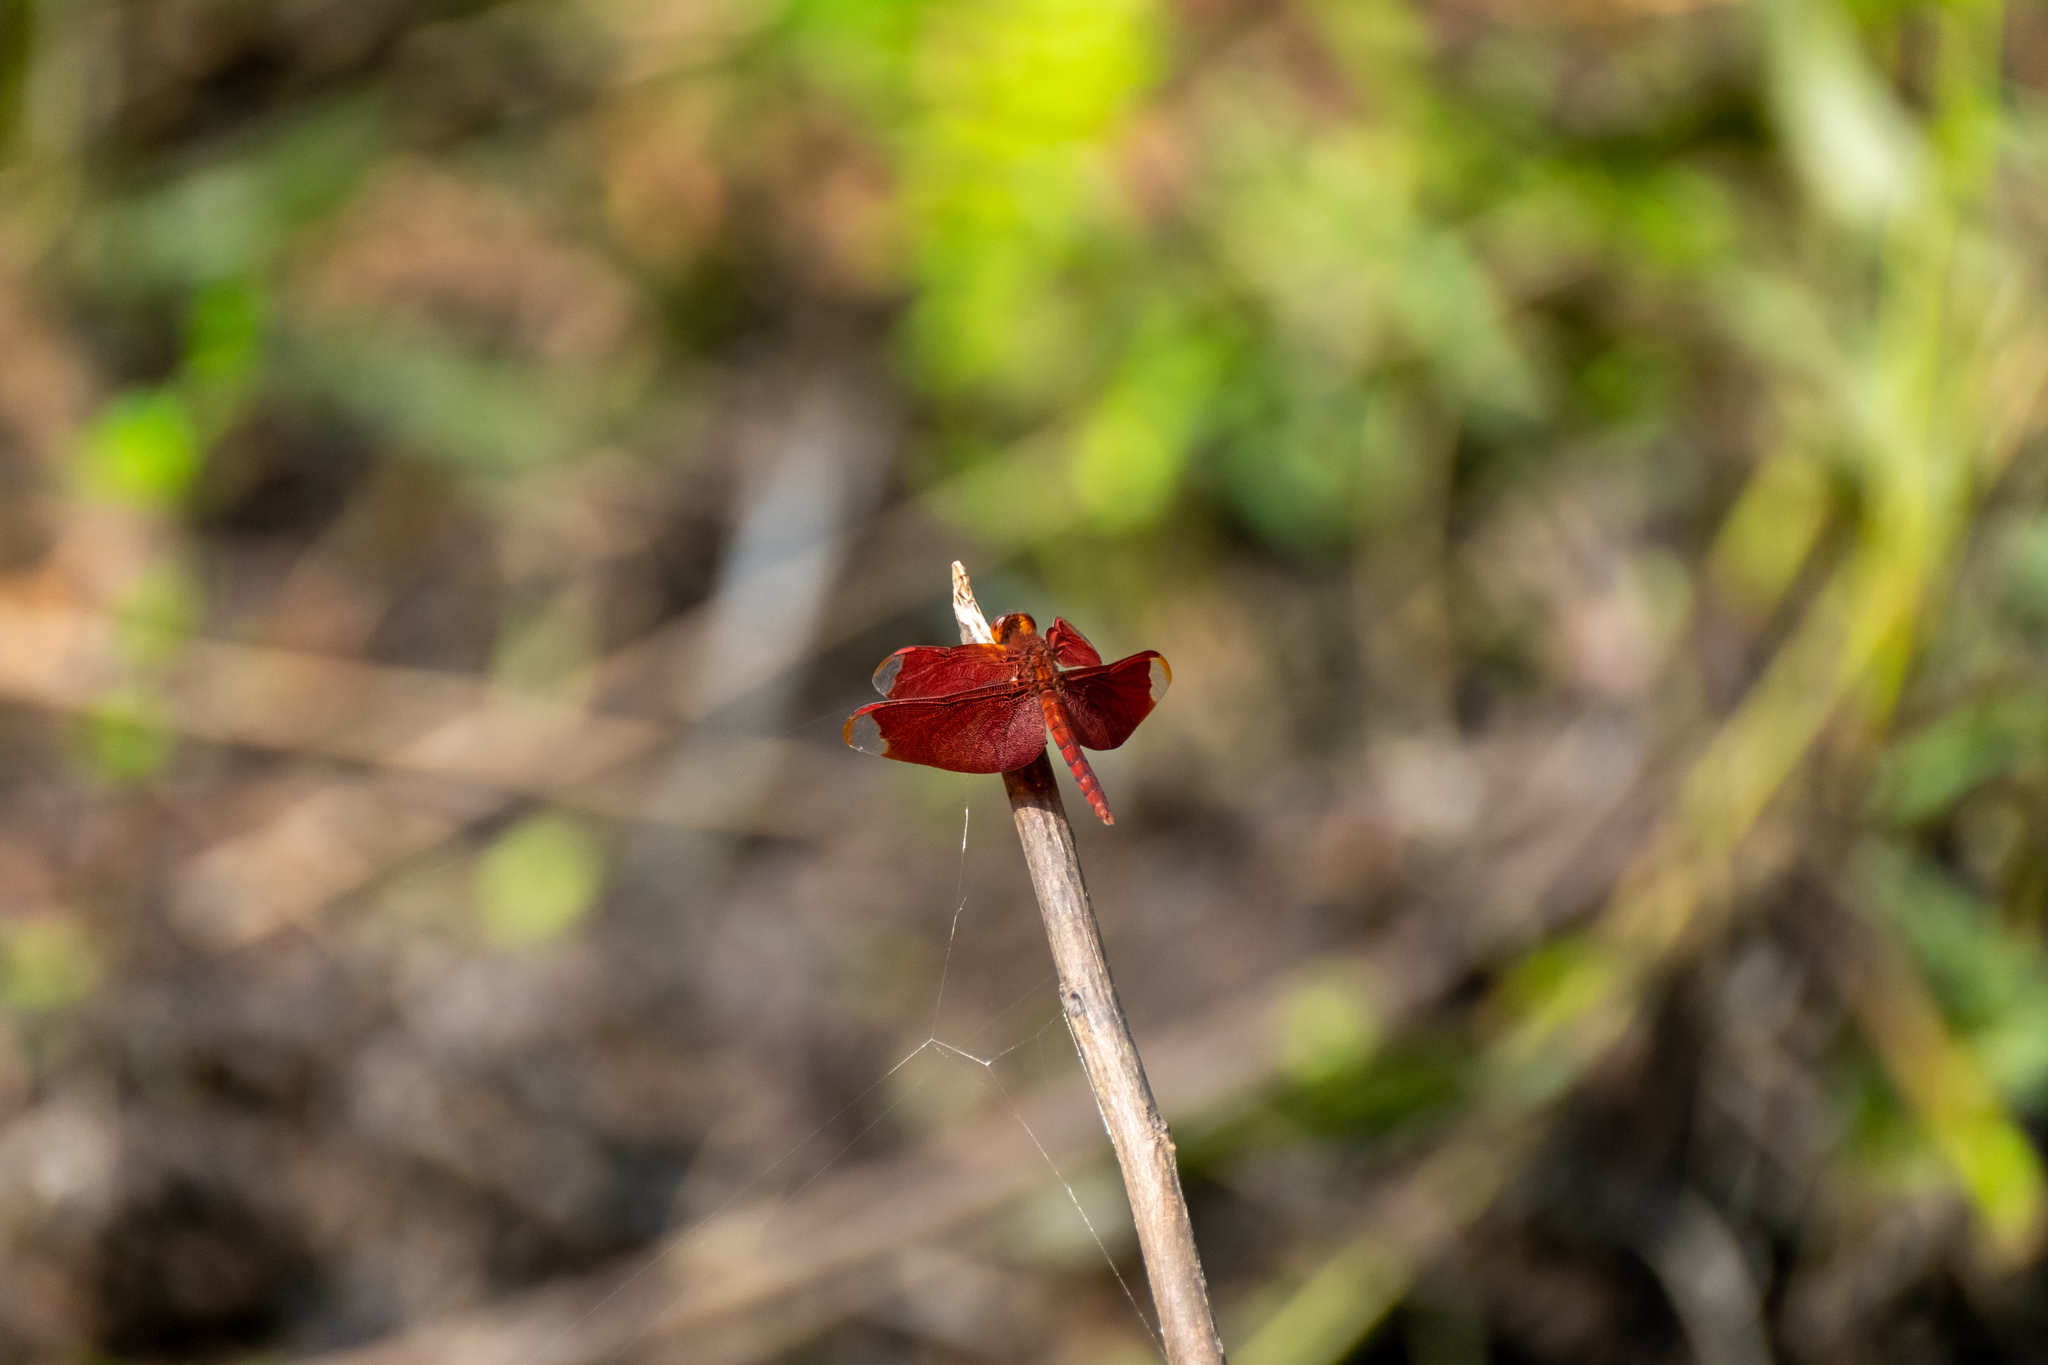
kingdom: Animalia
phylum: Arthropoda
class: Insecta
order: Odonata
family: Libellulidae
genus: Neurothemis
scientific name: Neurothemis fulvia
